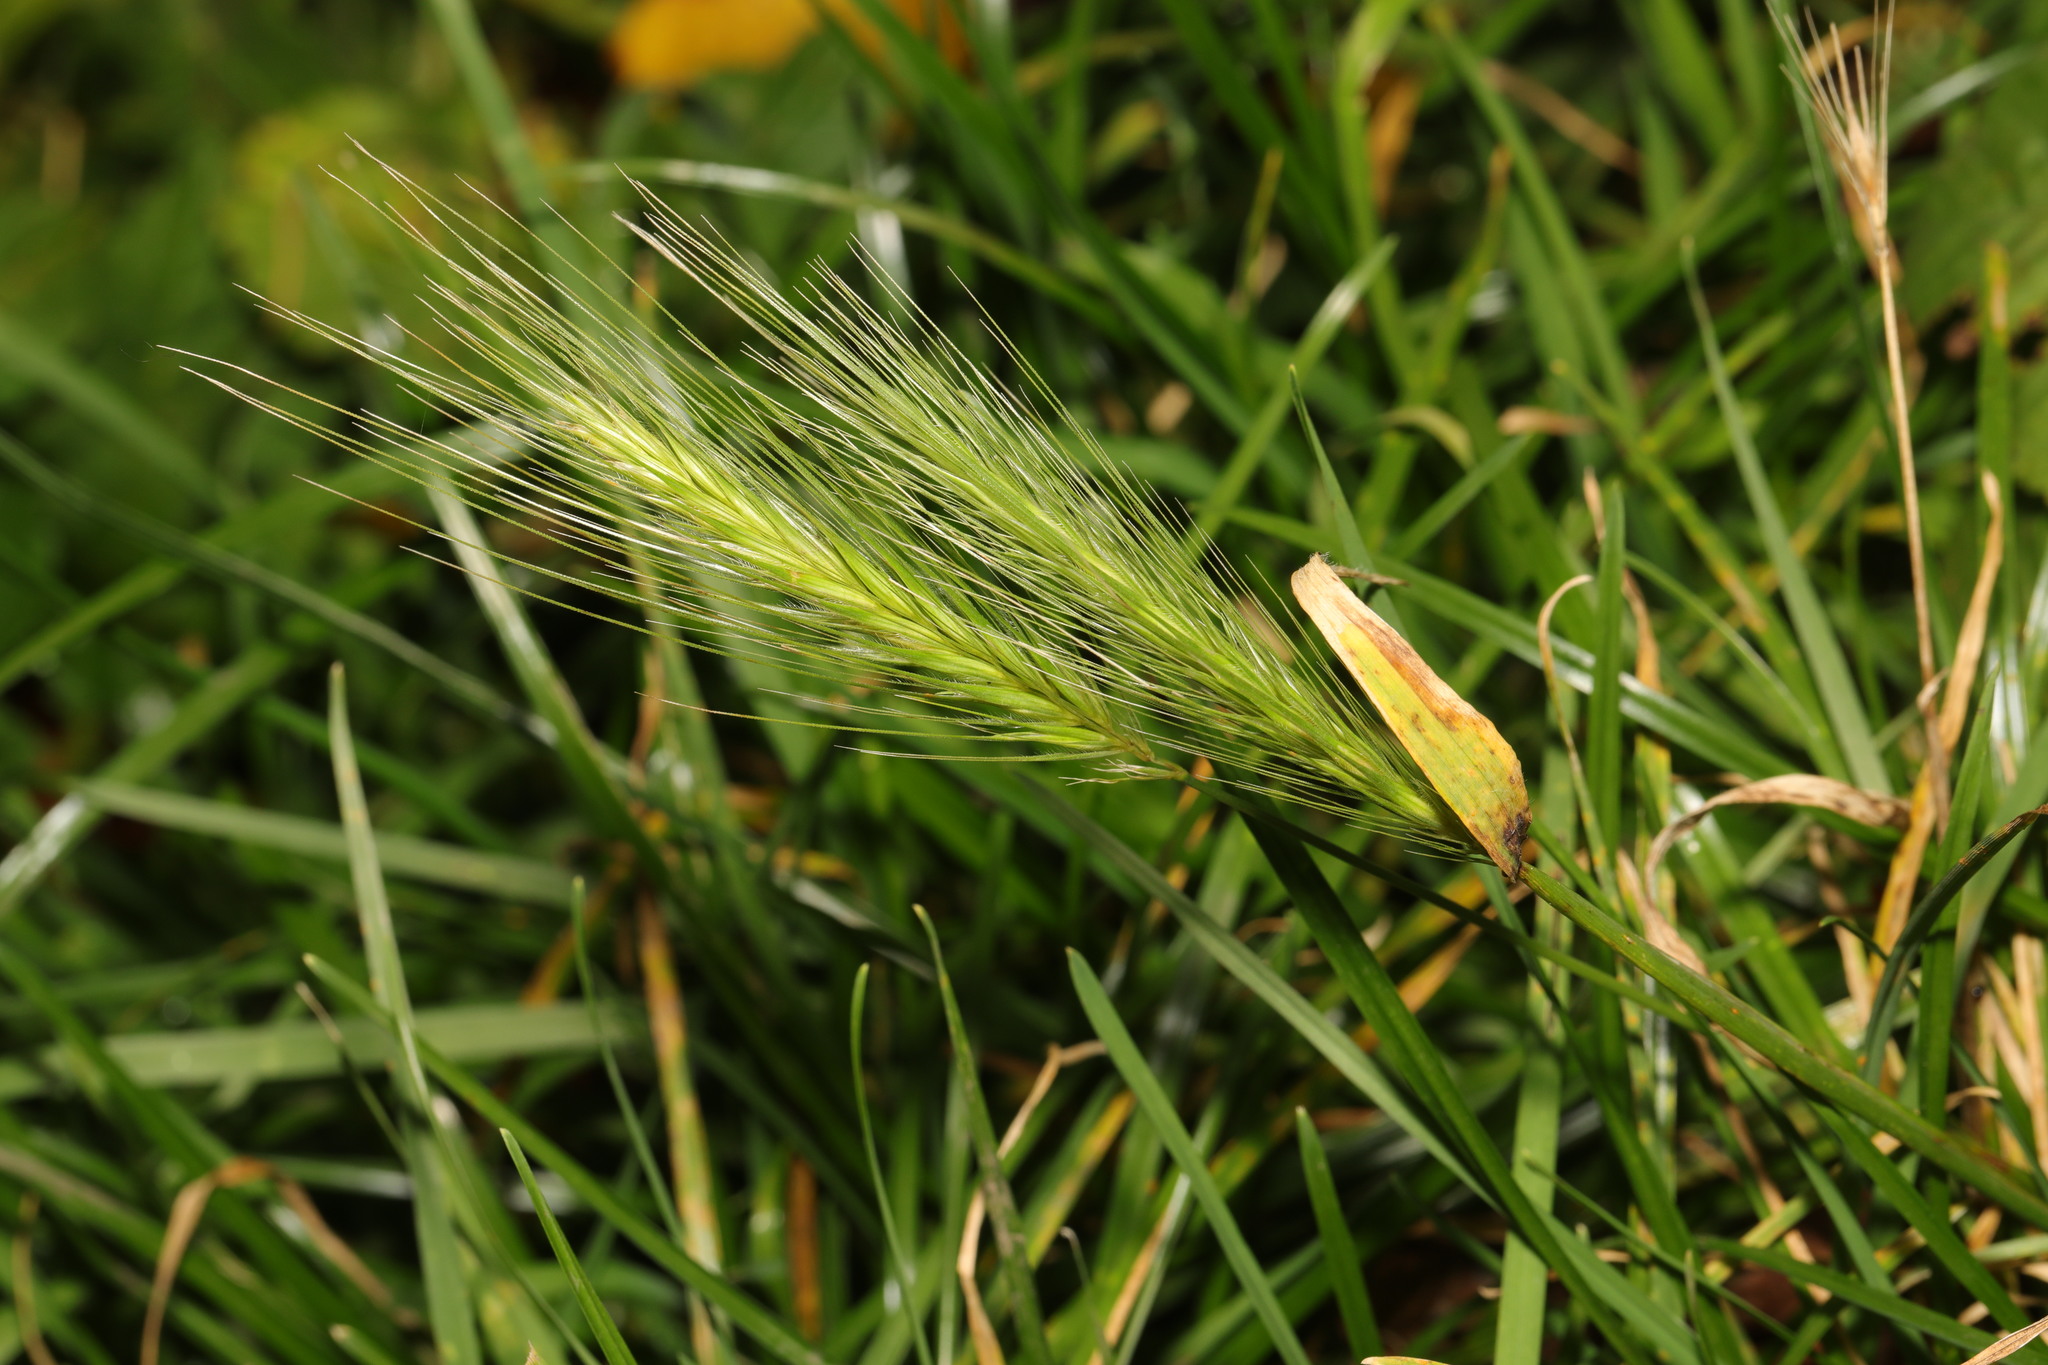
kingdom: Plantae
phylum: Tracheophyta
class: Liliopsida
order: Poales
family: Poaceae
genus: Hordeum
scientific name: Hordeum murinum
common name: Wall barley
